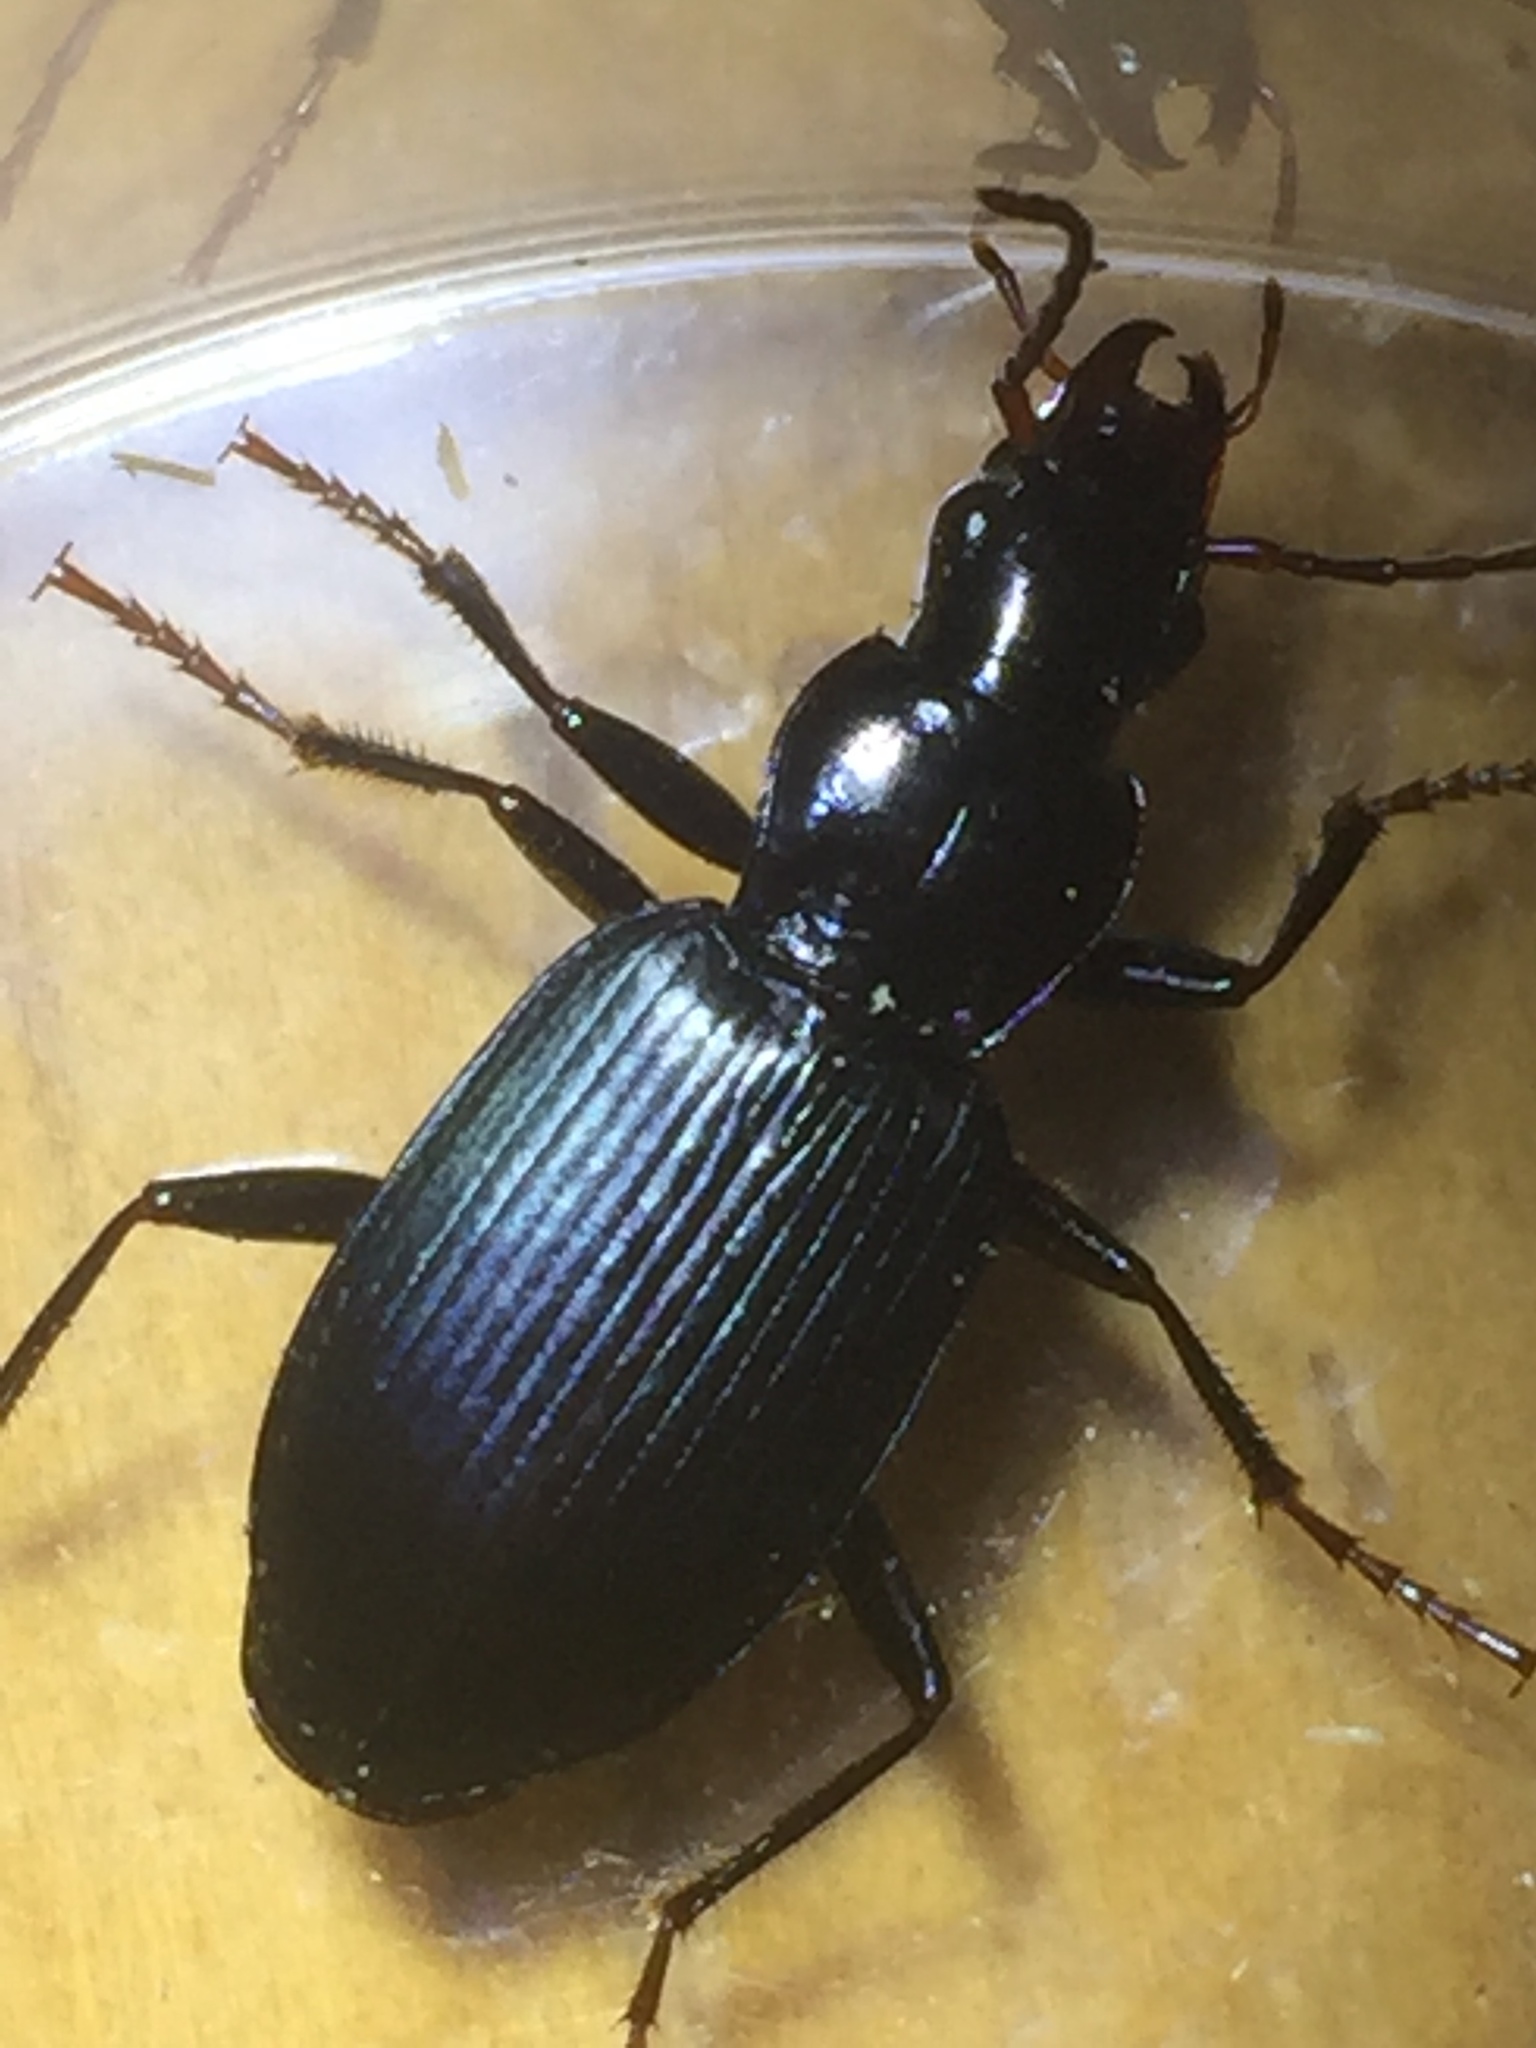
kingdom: Animalia
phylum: Arthropoda
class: Insecta
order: Coleoptera
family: Carabidae
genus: Laemostenus
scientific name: Laemostenus complanatus
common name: Cosmopolitan ground beetle
